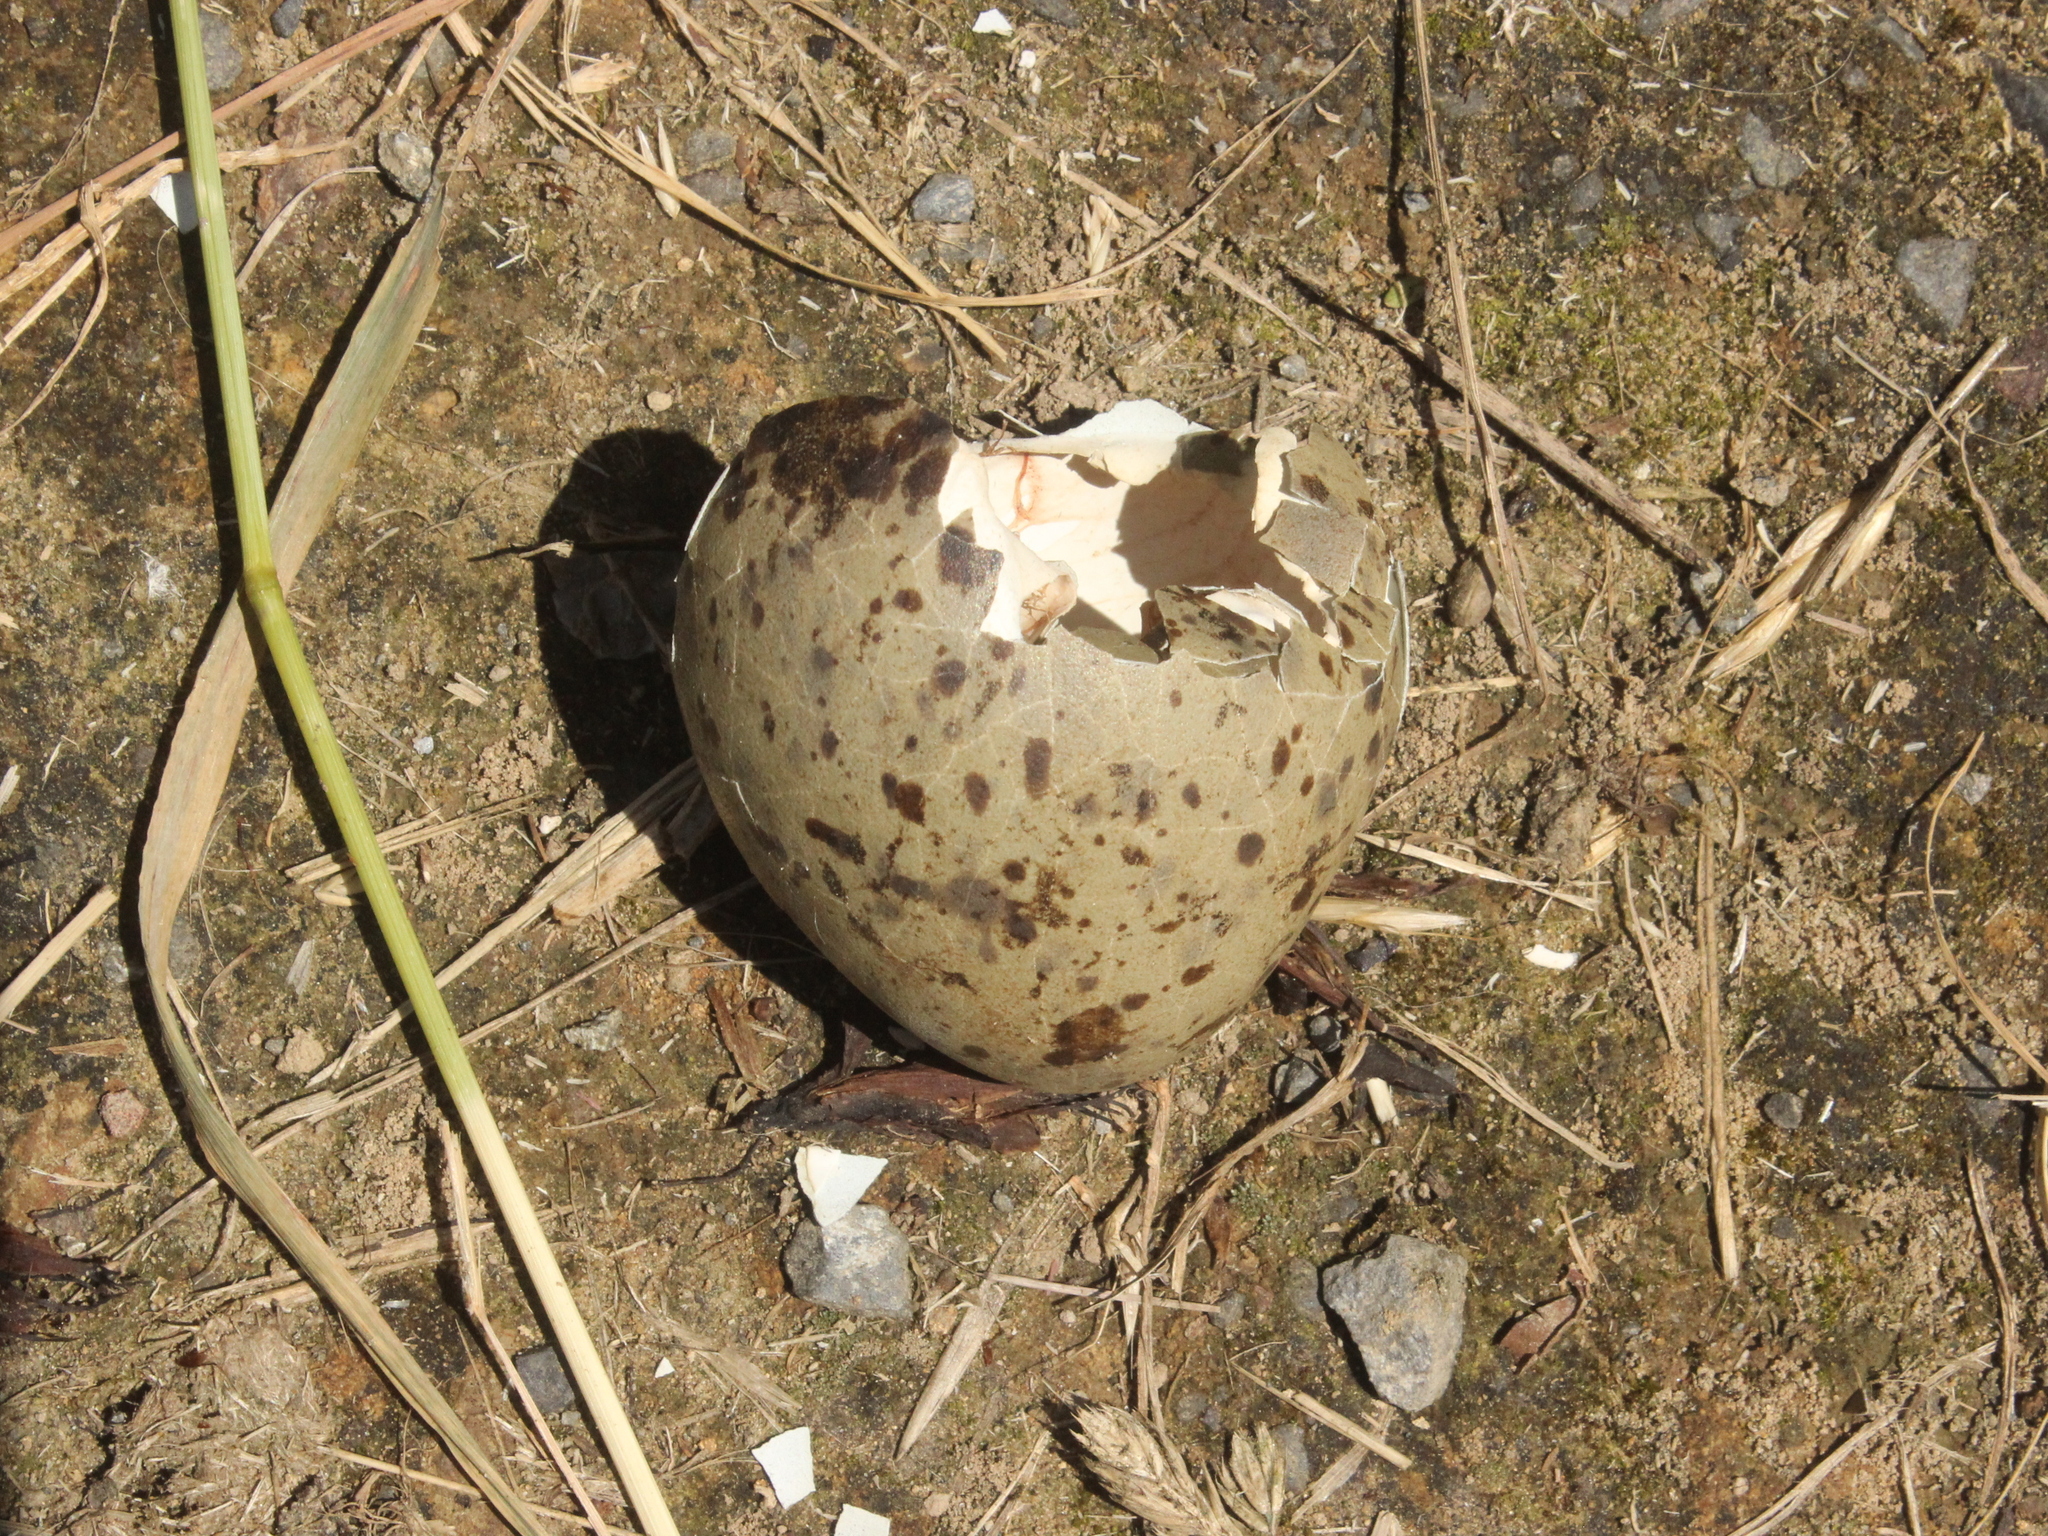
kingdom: Animalia
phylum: Chordata
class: Aves
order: Charadriiformes
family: Laridae
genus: Larus
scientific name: Larus dominicanus
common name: Kelp gull
